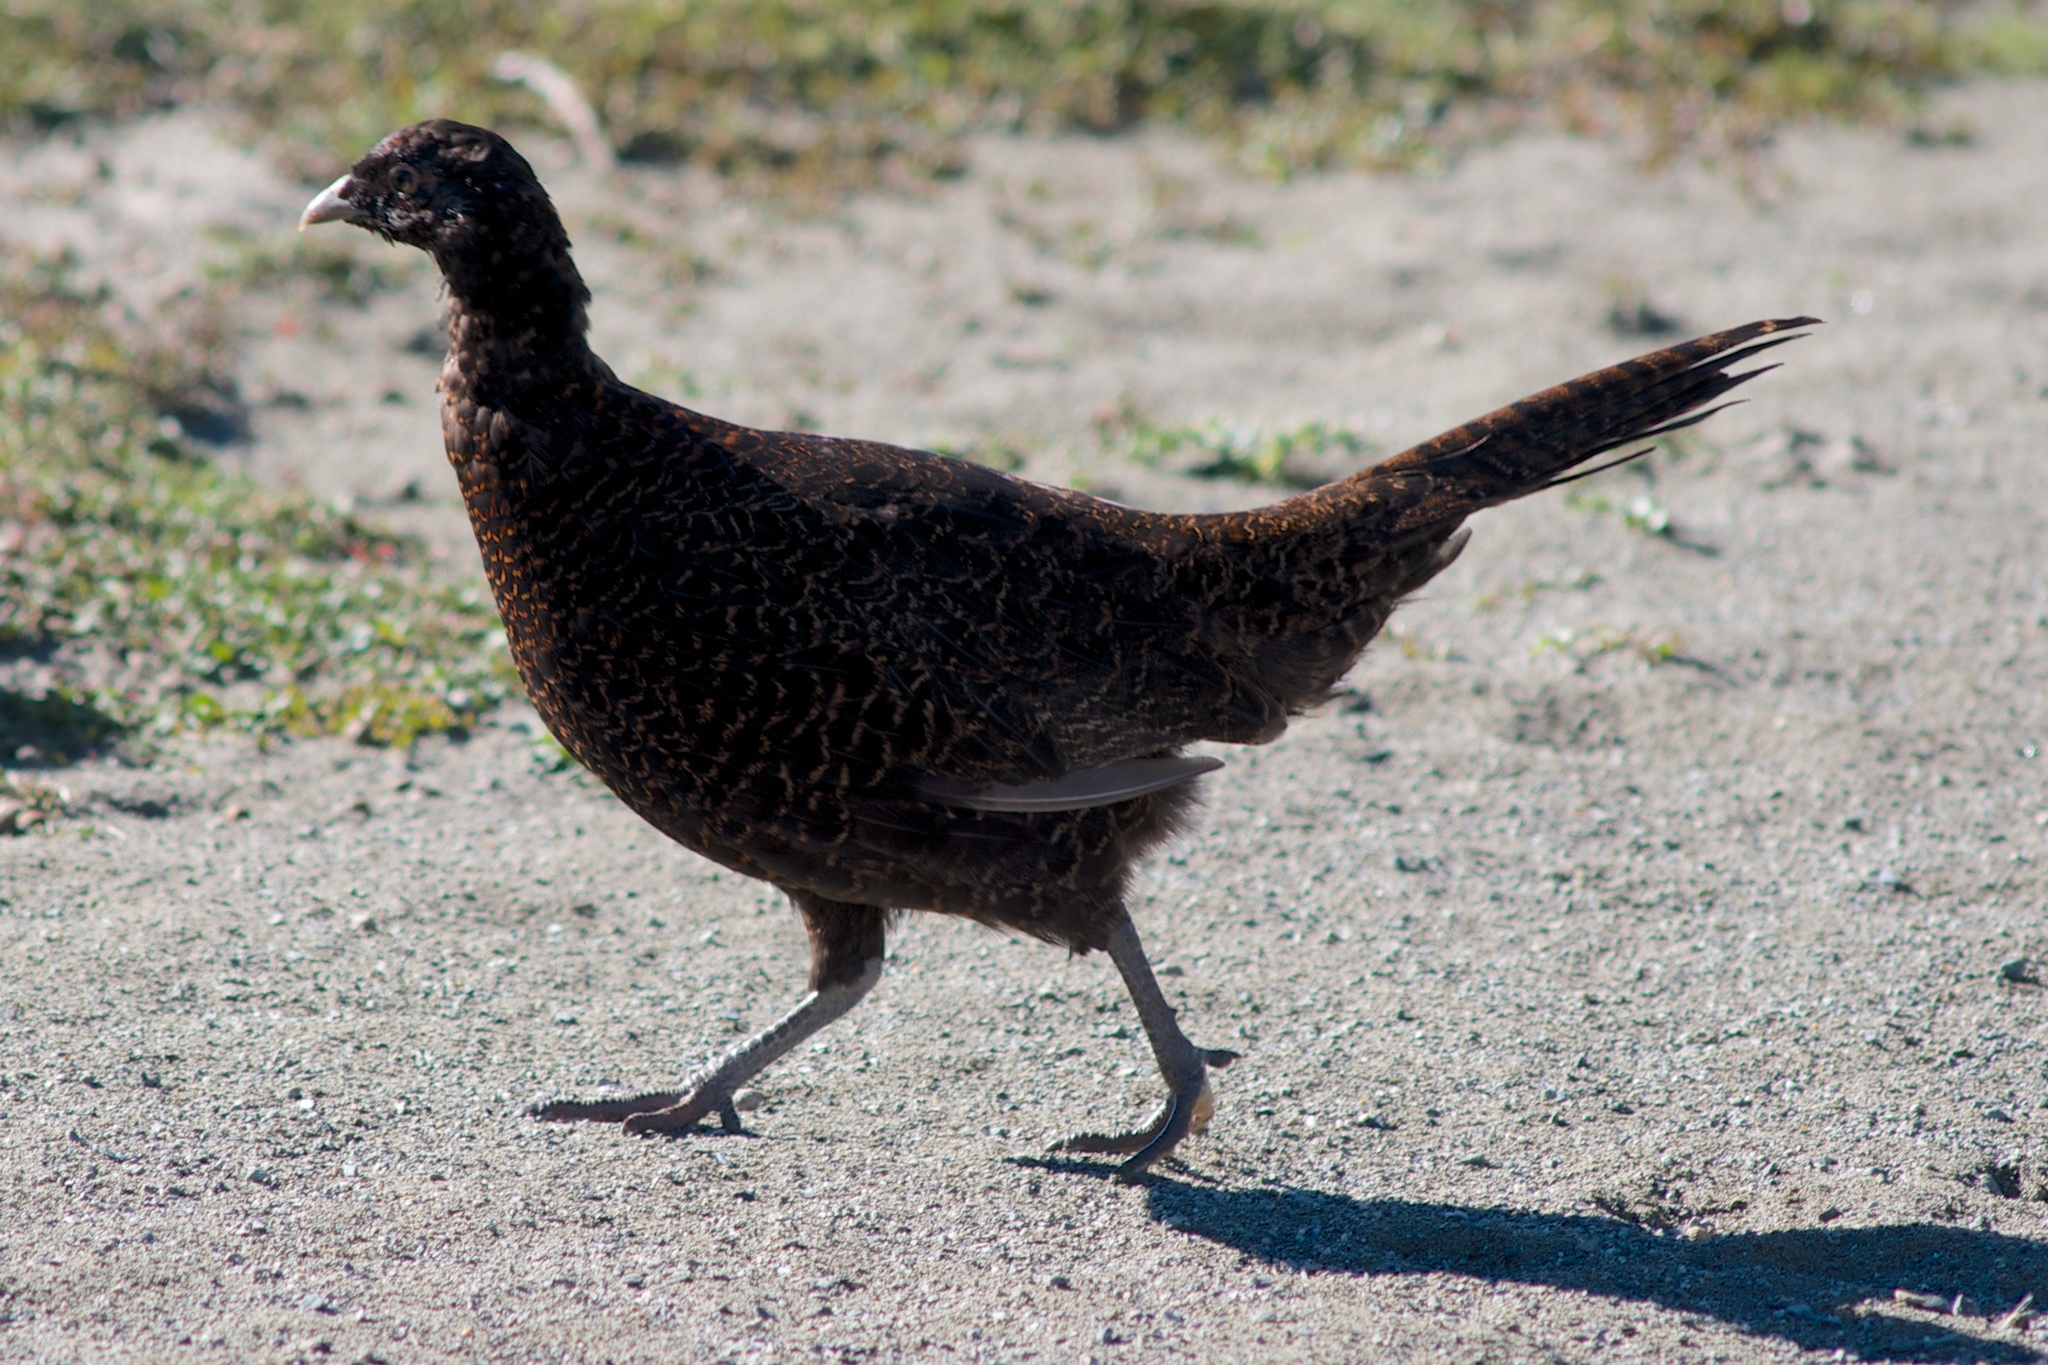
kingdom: Animalia
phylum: Chordata
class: Aves
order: Galliformes
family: Phasianidae
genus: Phasianus
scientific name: Phasianus colchicus
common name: Common pheasant
